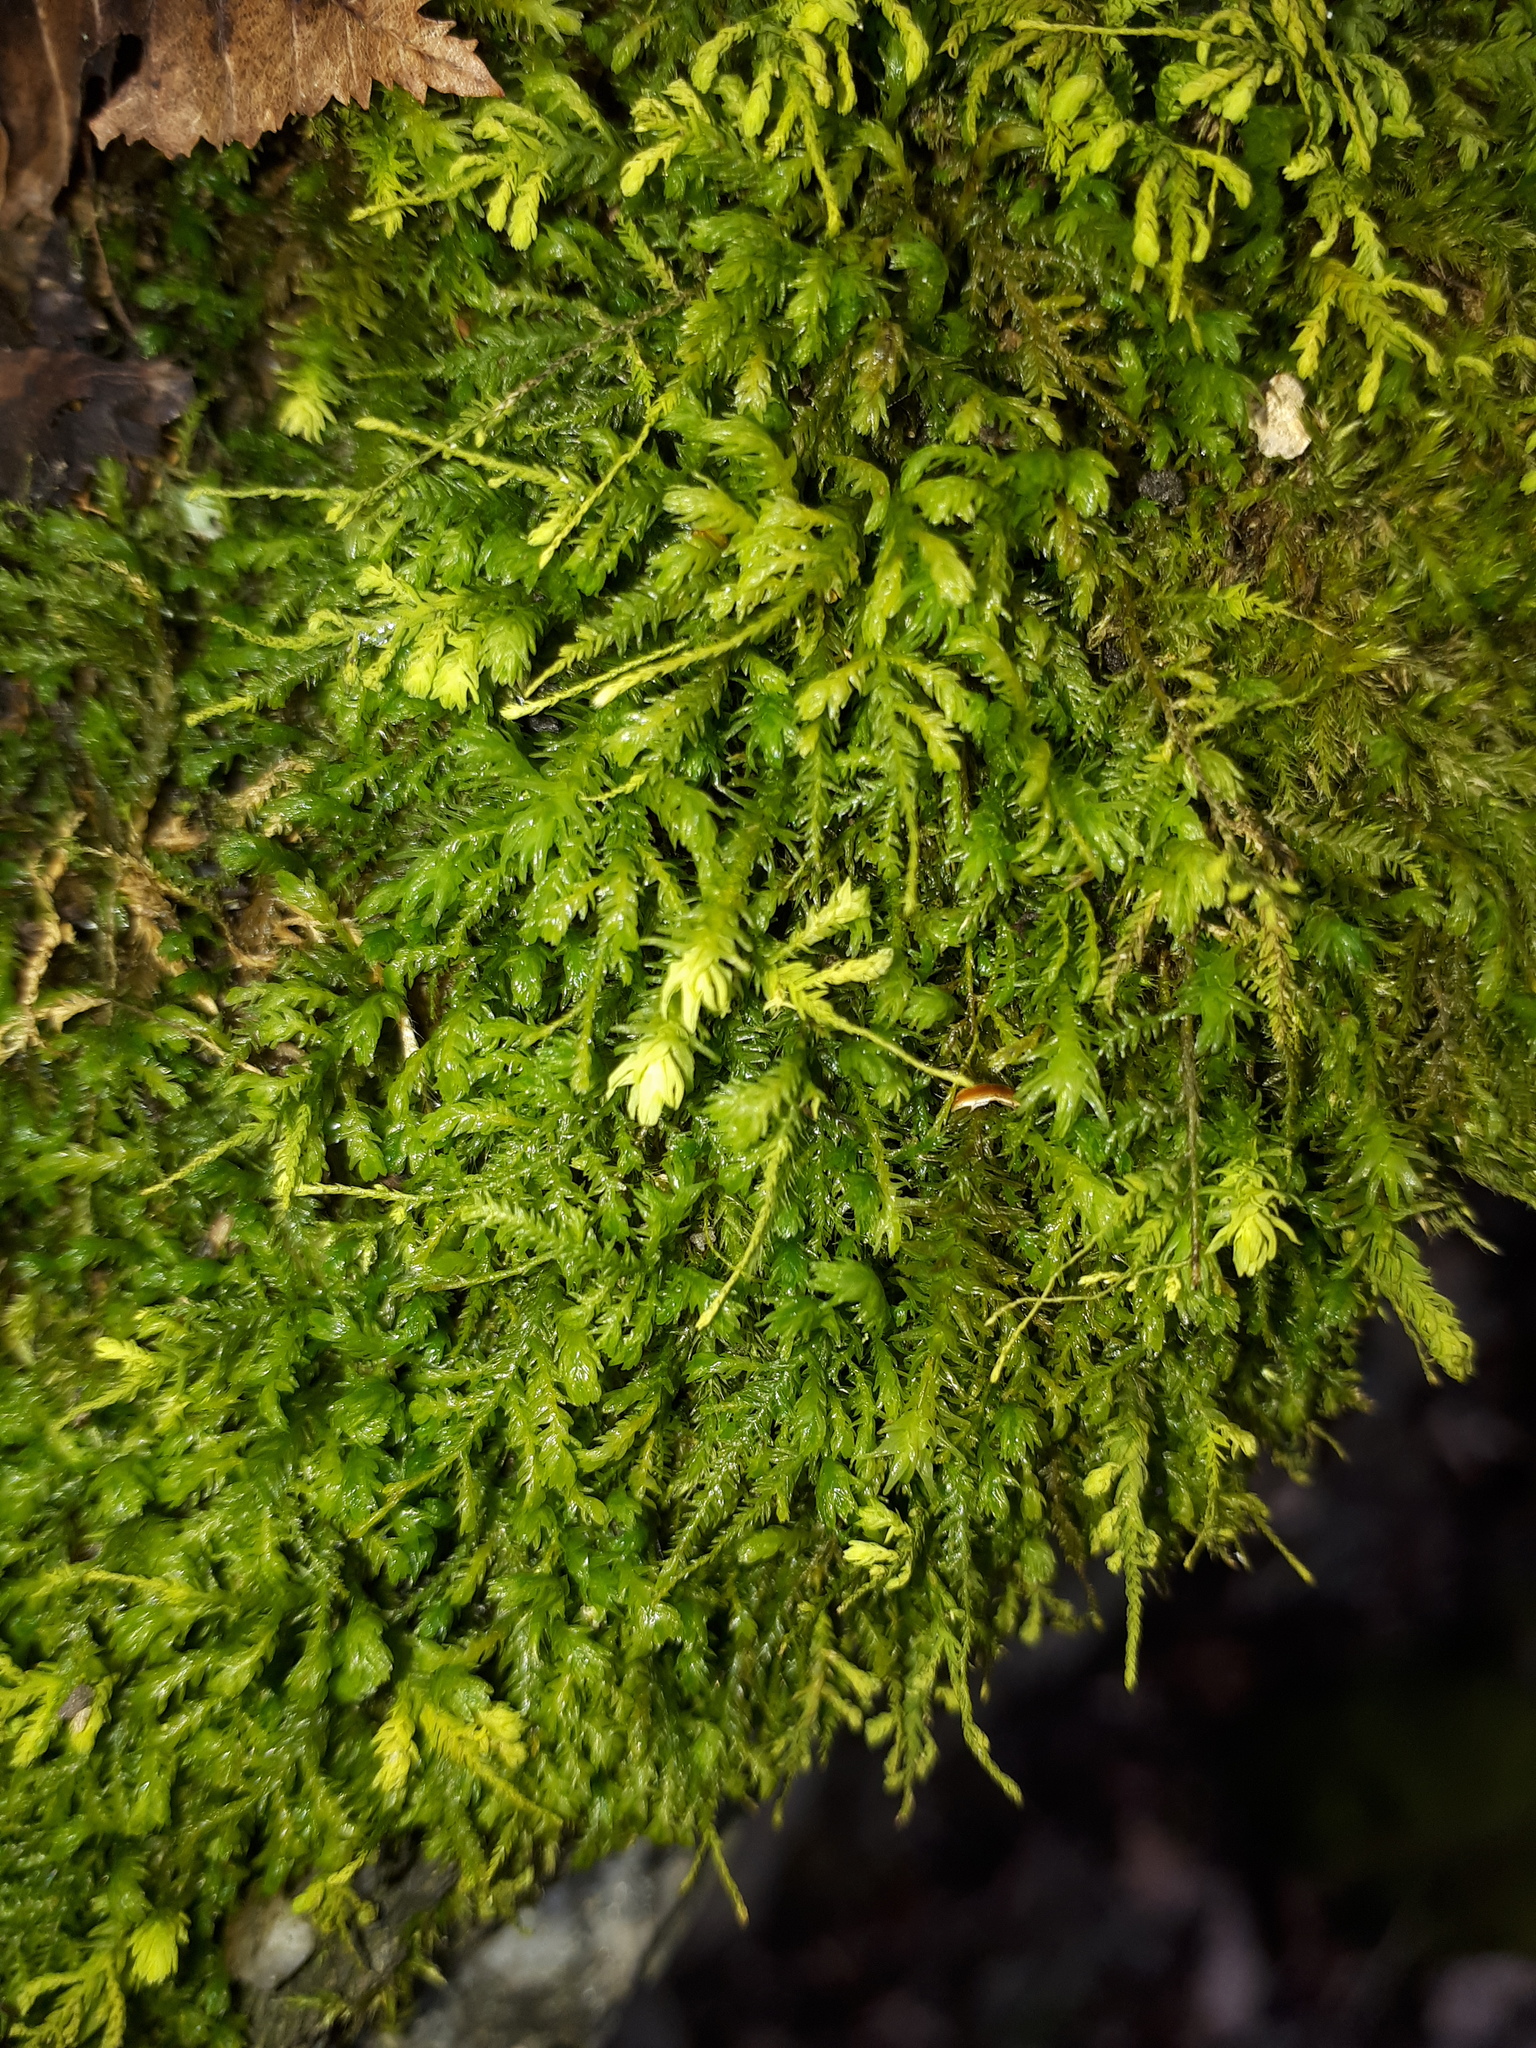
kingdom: Plantae
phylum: Bryophyta
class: Bryopsida
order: Hypnales
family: Neckeraceae
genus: Pseudanomodon
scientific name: Pseudanomodon attenuatus
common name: Tree-skirt moss
